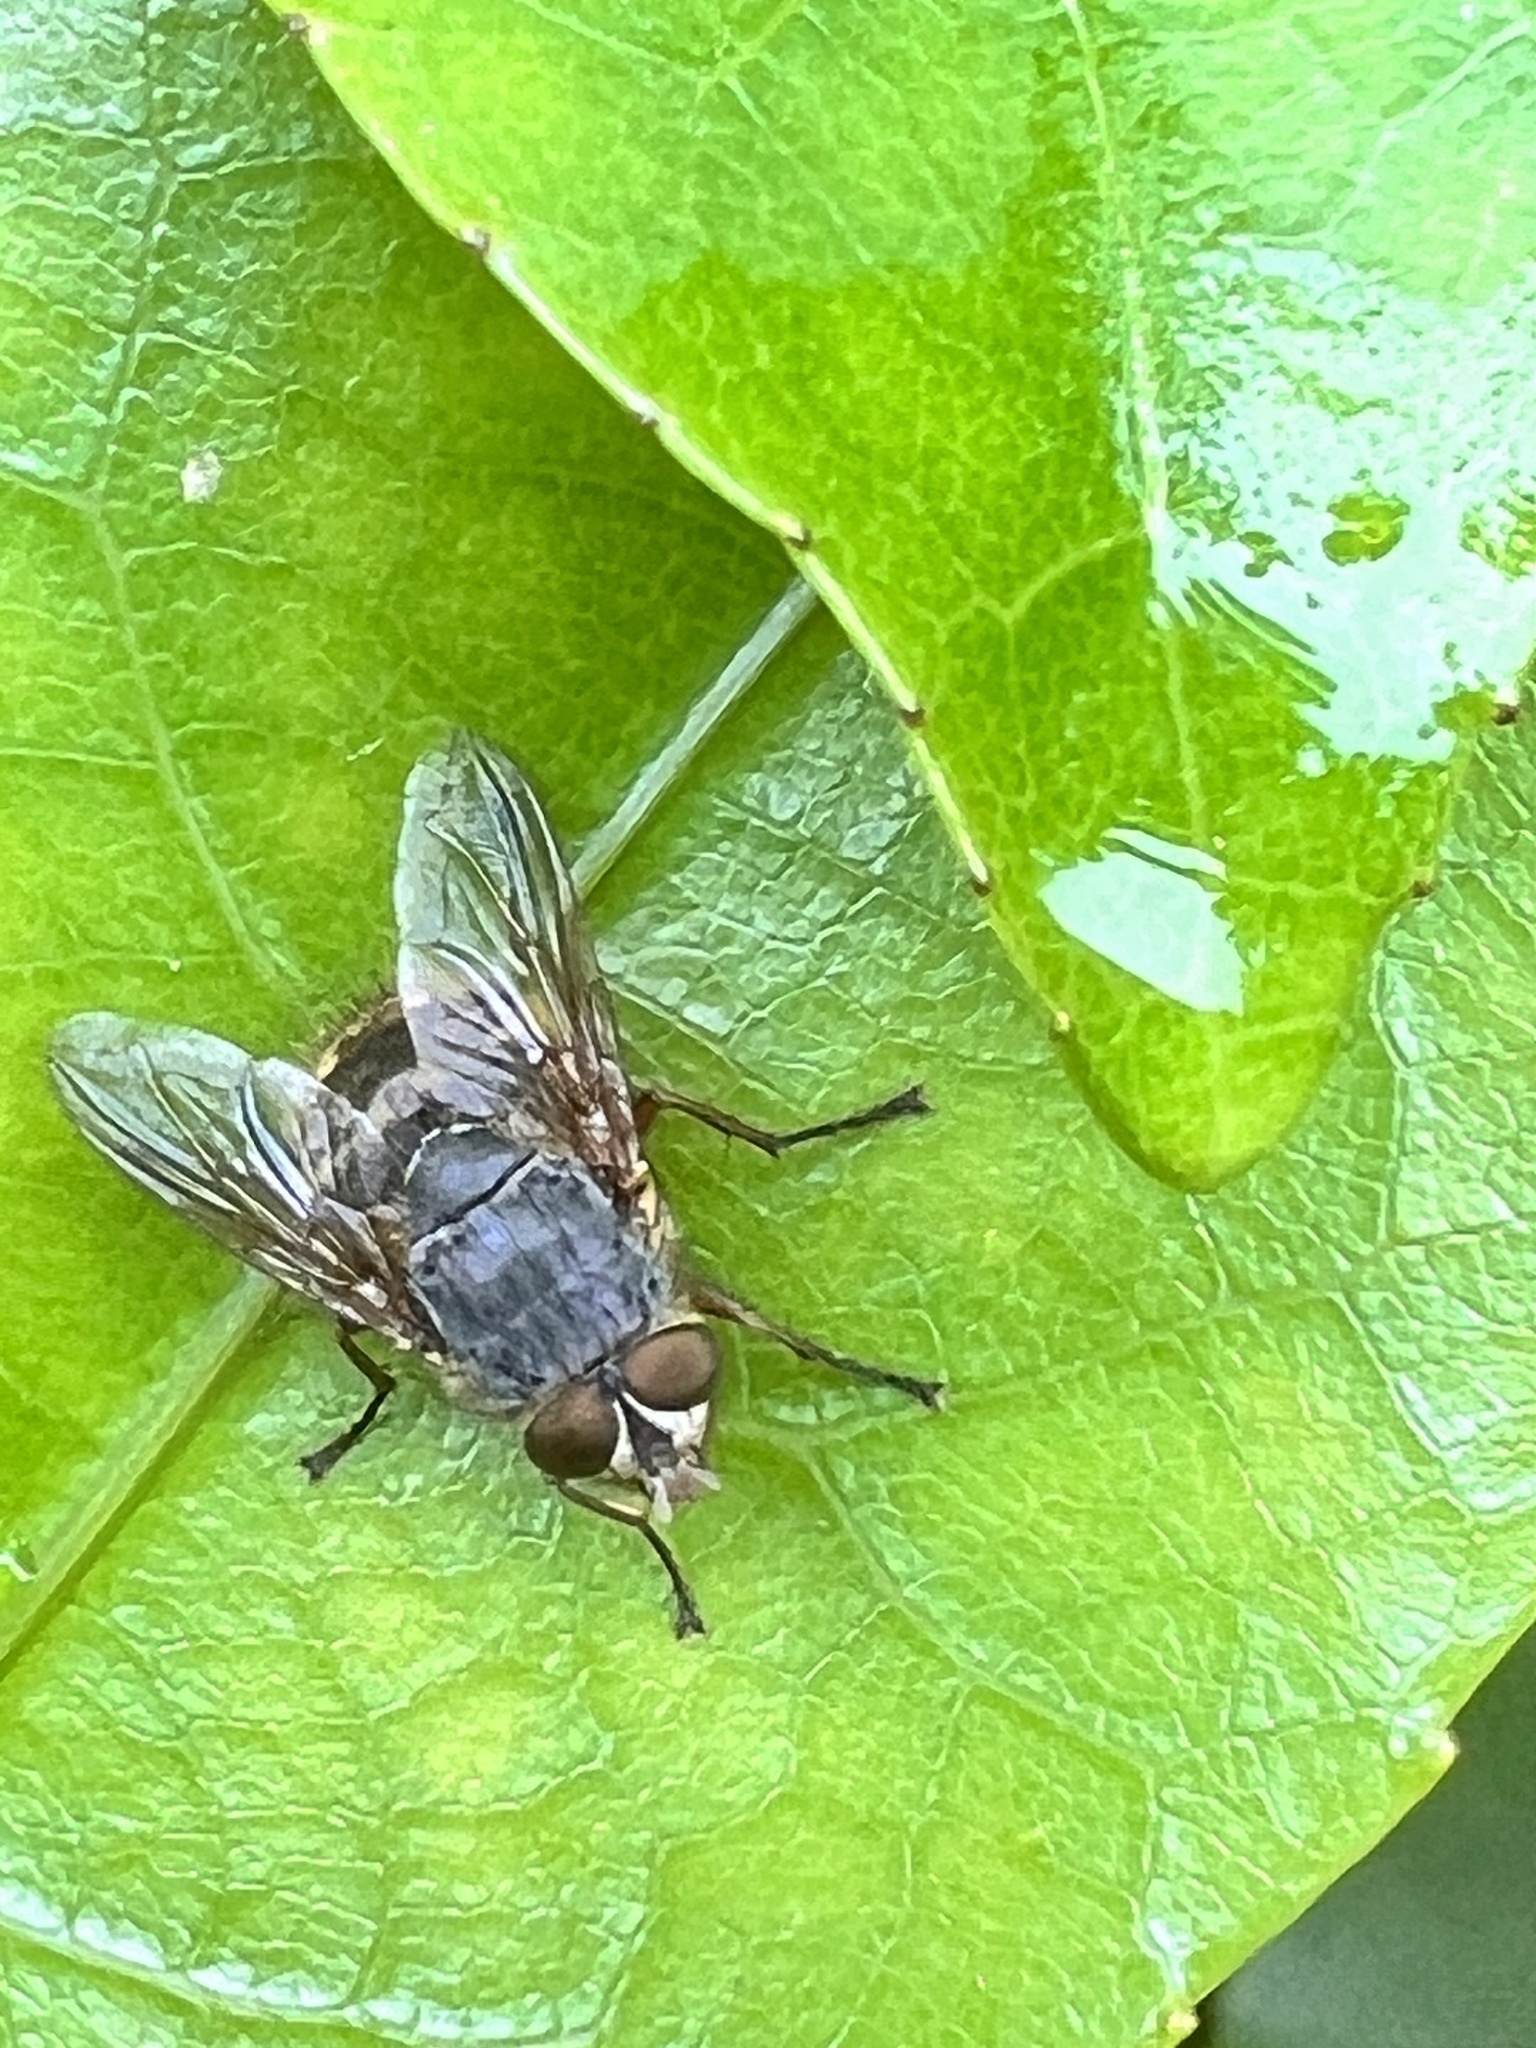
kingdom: Animalia
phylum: Arthropoda
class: Insecta
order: Diptera
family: Calliphoridae
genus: Calliphora
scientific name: Calliphora hilli
